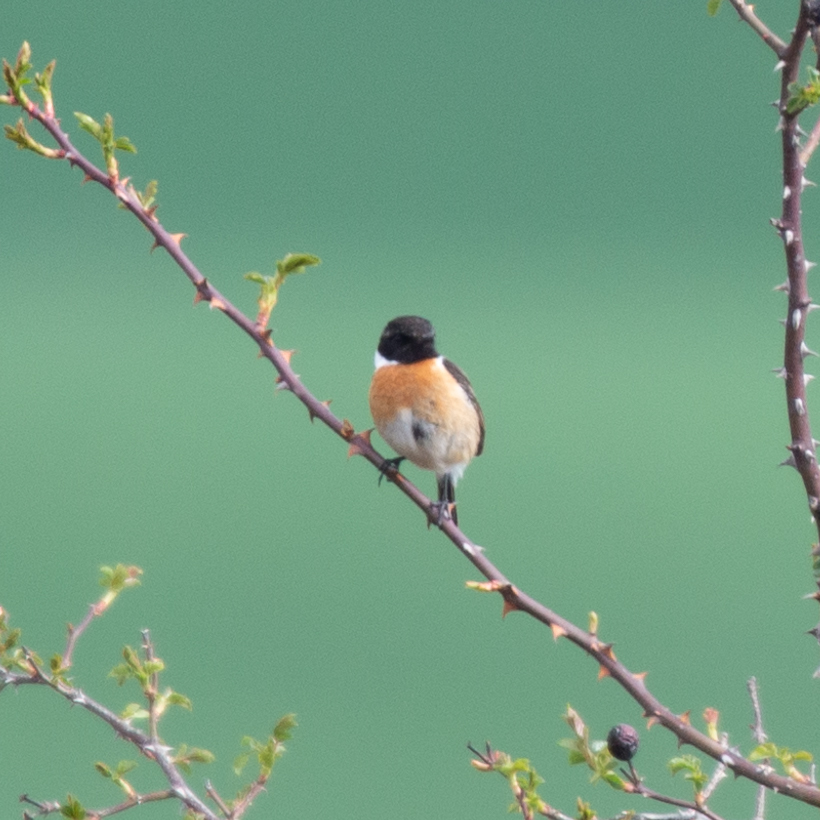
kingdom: Animalia
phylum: Chordata
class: Aves
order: Passeriformes
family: Muscicapidae
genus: Saxicola
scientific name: Saxicola rubicola
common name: European stonechat
